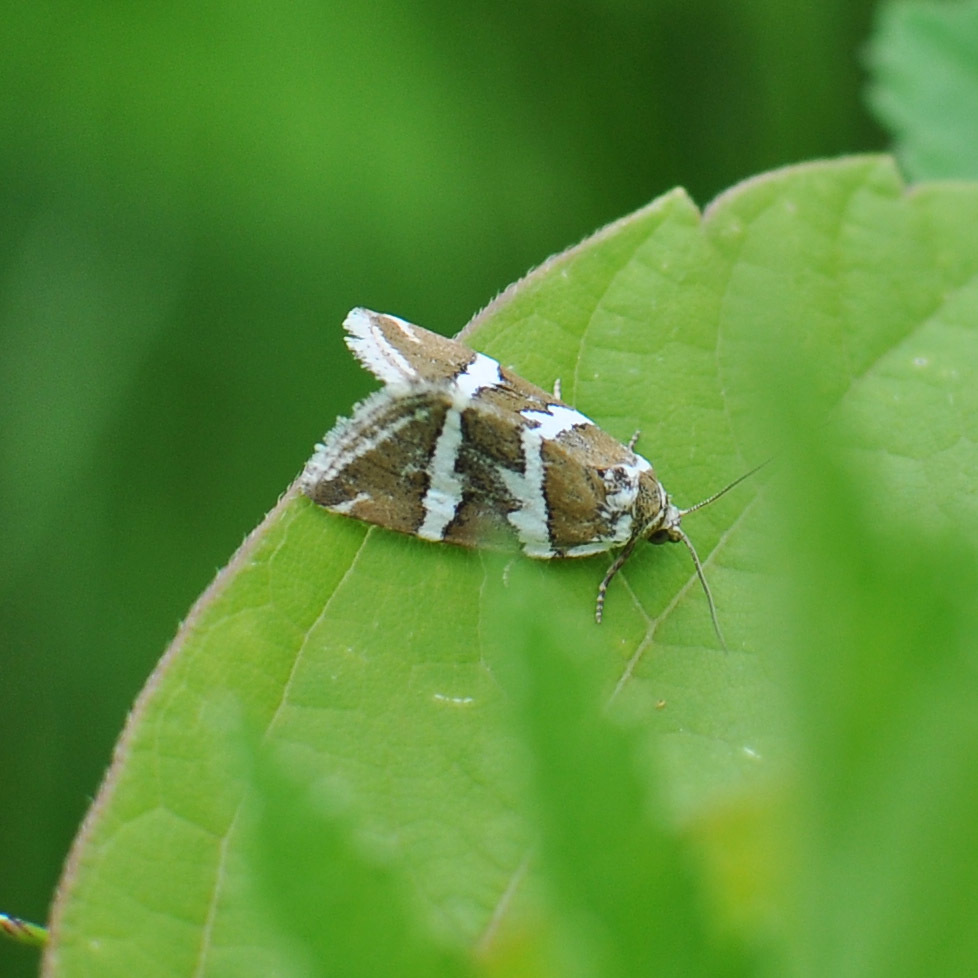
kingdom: Animalia
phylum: Arthropoda
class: Insecta
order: Lepidoptera
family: Noctuidae
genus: Deltote
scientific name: Deltote bankiana
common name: Silver barred
